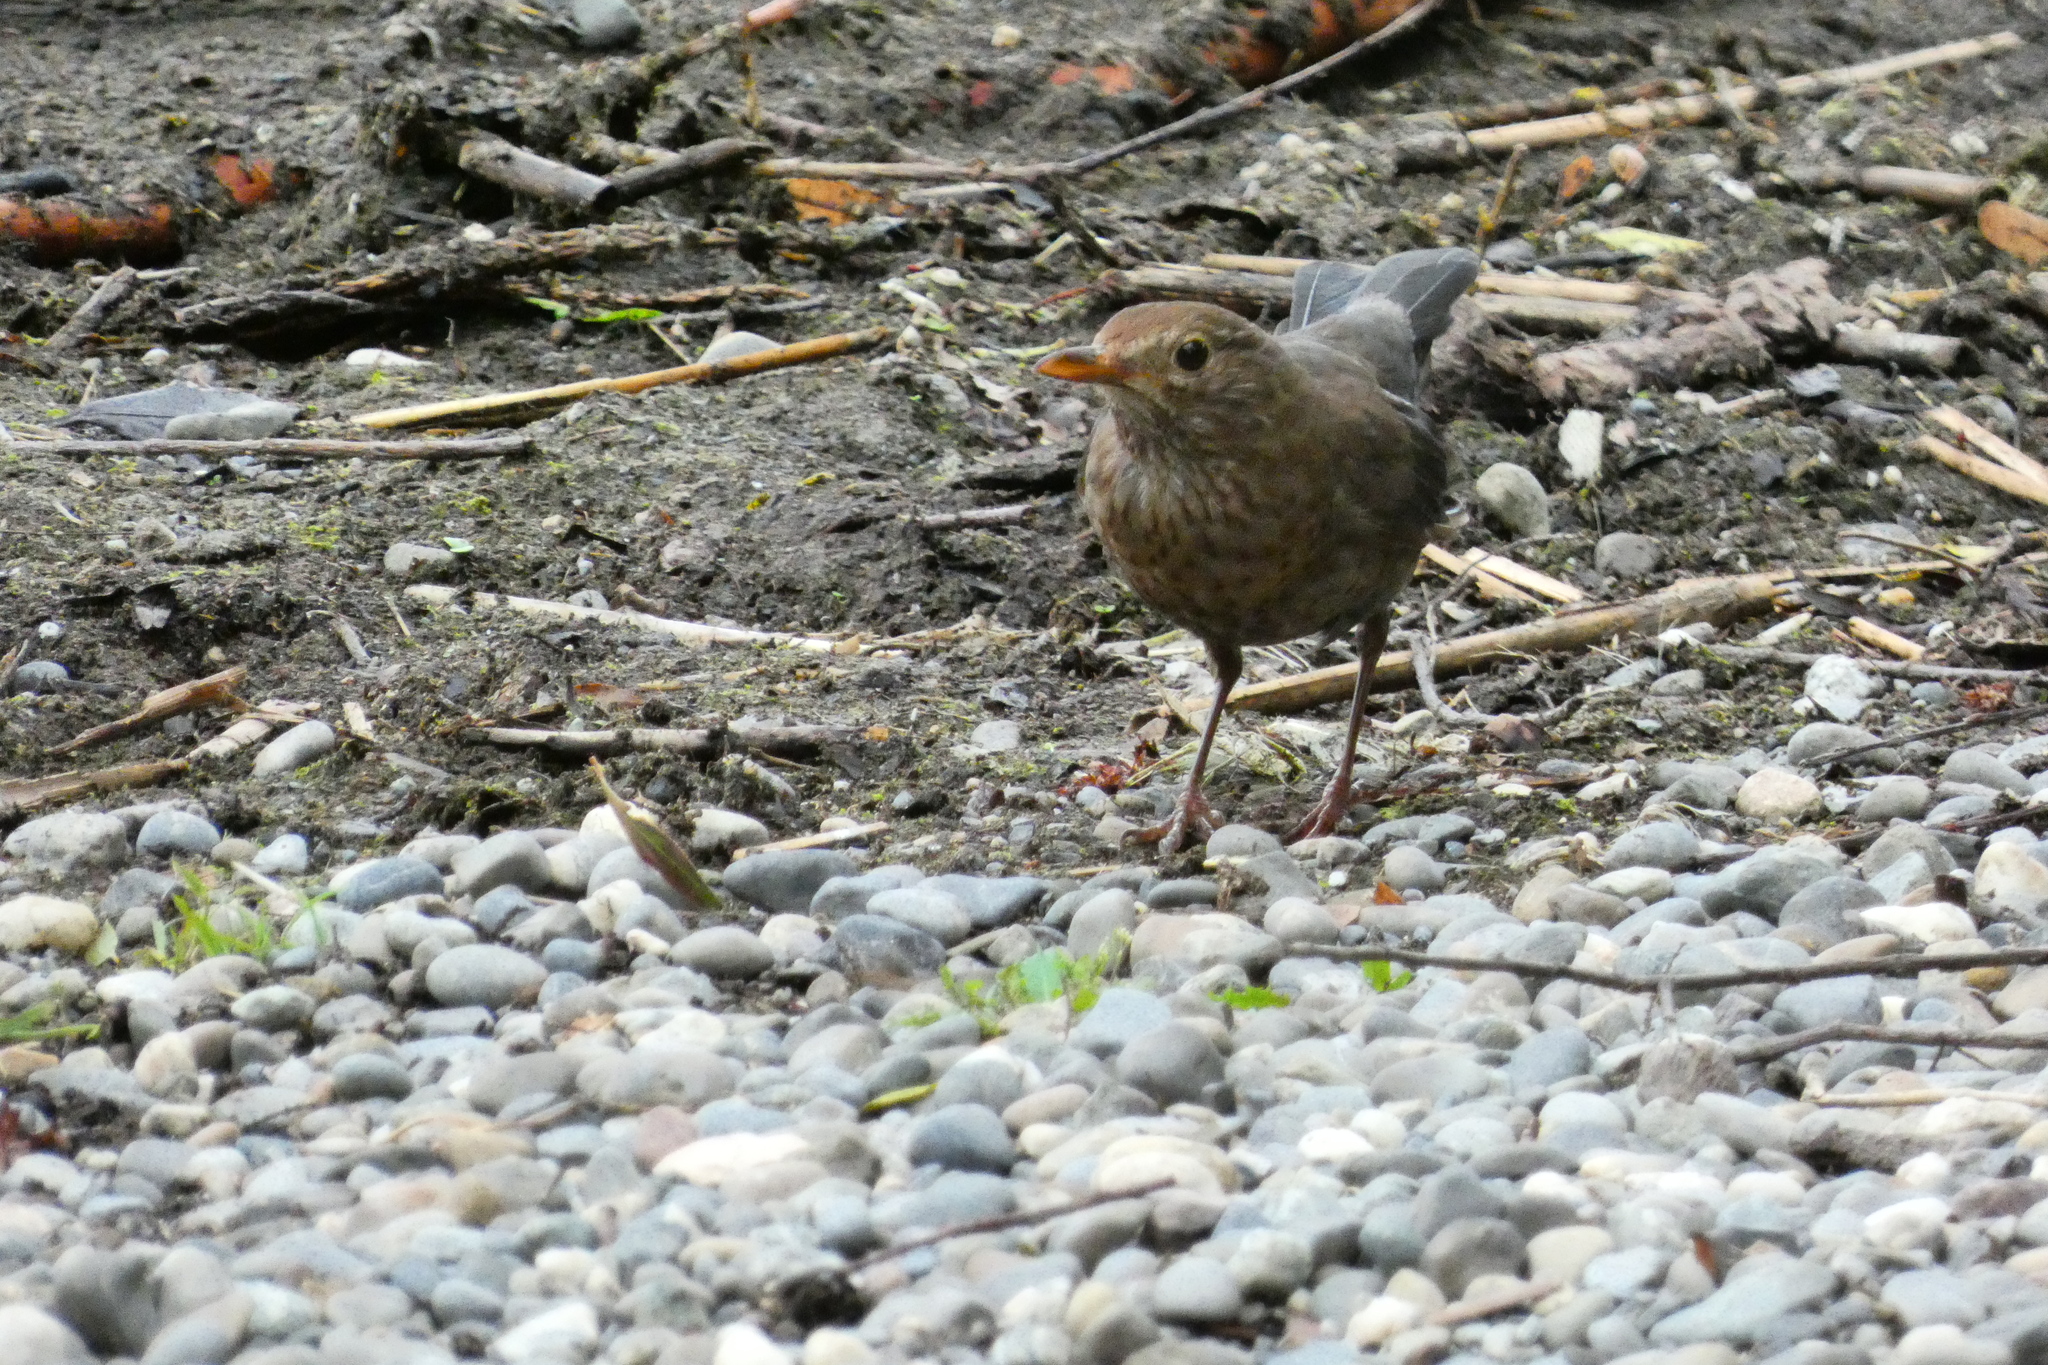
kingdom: Animalia
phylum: Chordata
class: Aves
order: Passeriformes
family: Turdidae
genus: Turdus
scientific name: Turdus merula
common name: Common blackbird
